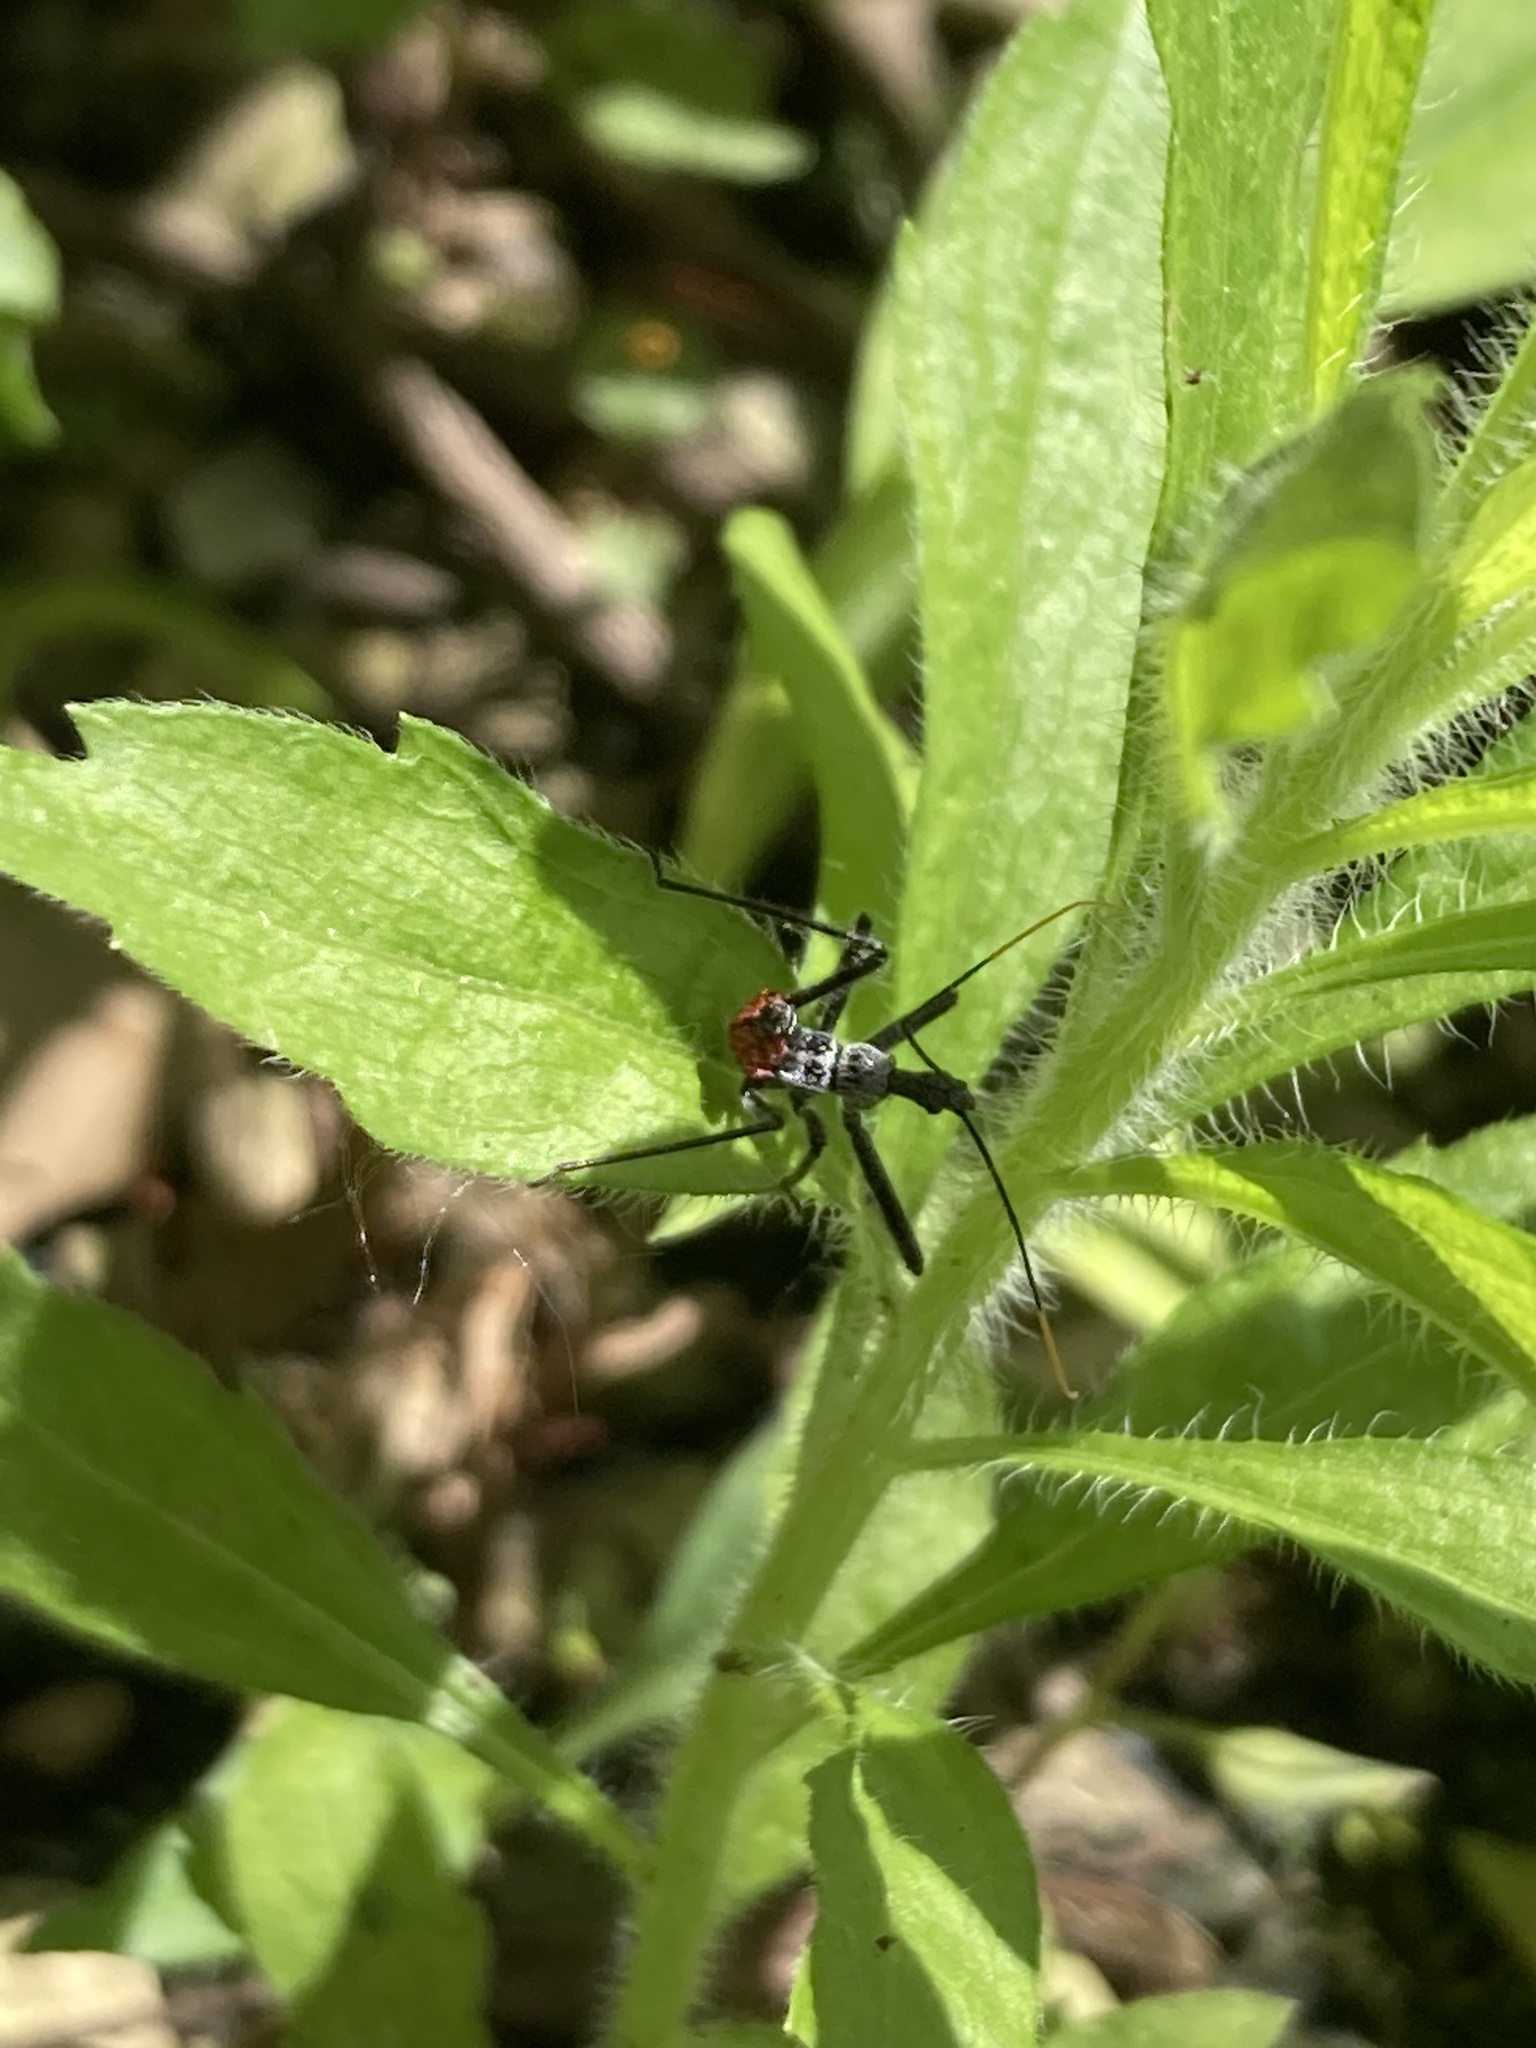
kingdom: Animalia
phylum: Arthropoda
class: Insecta
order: Hemiptera
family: Reduviidae
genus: Arilus
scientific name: Arilus cristatus
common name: North american wheel bug
